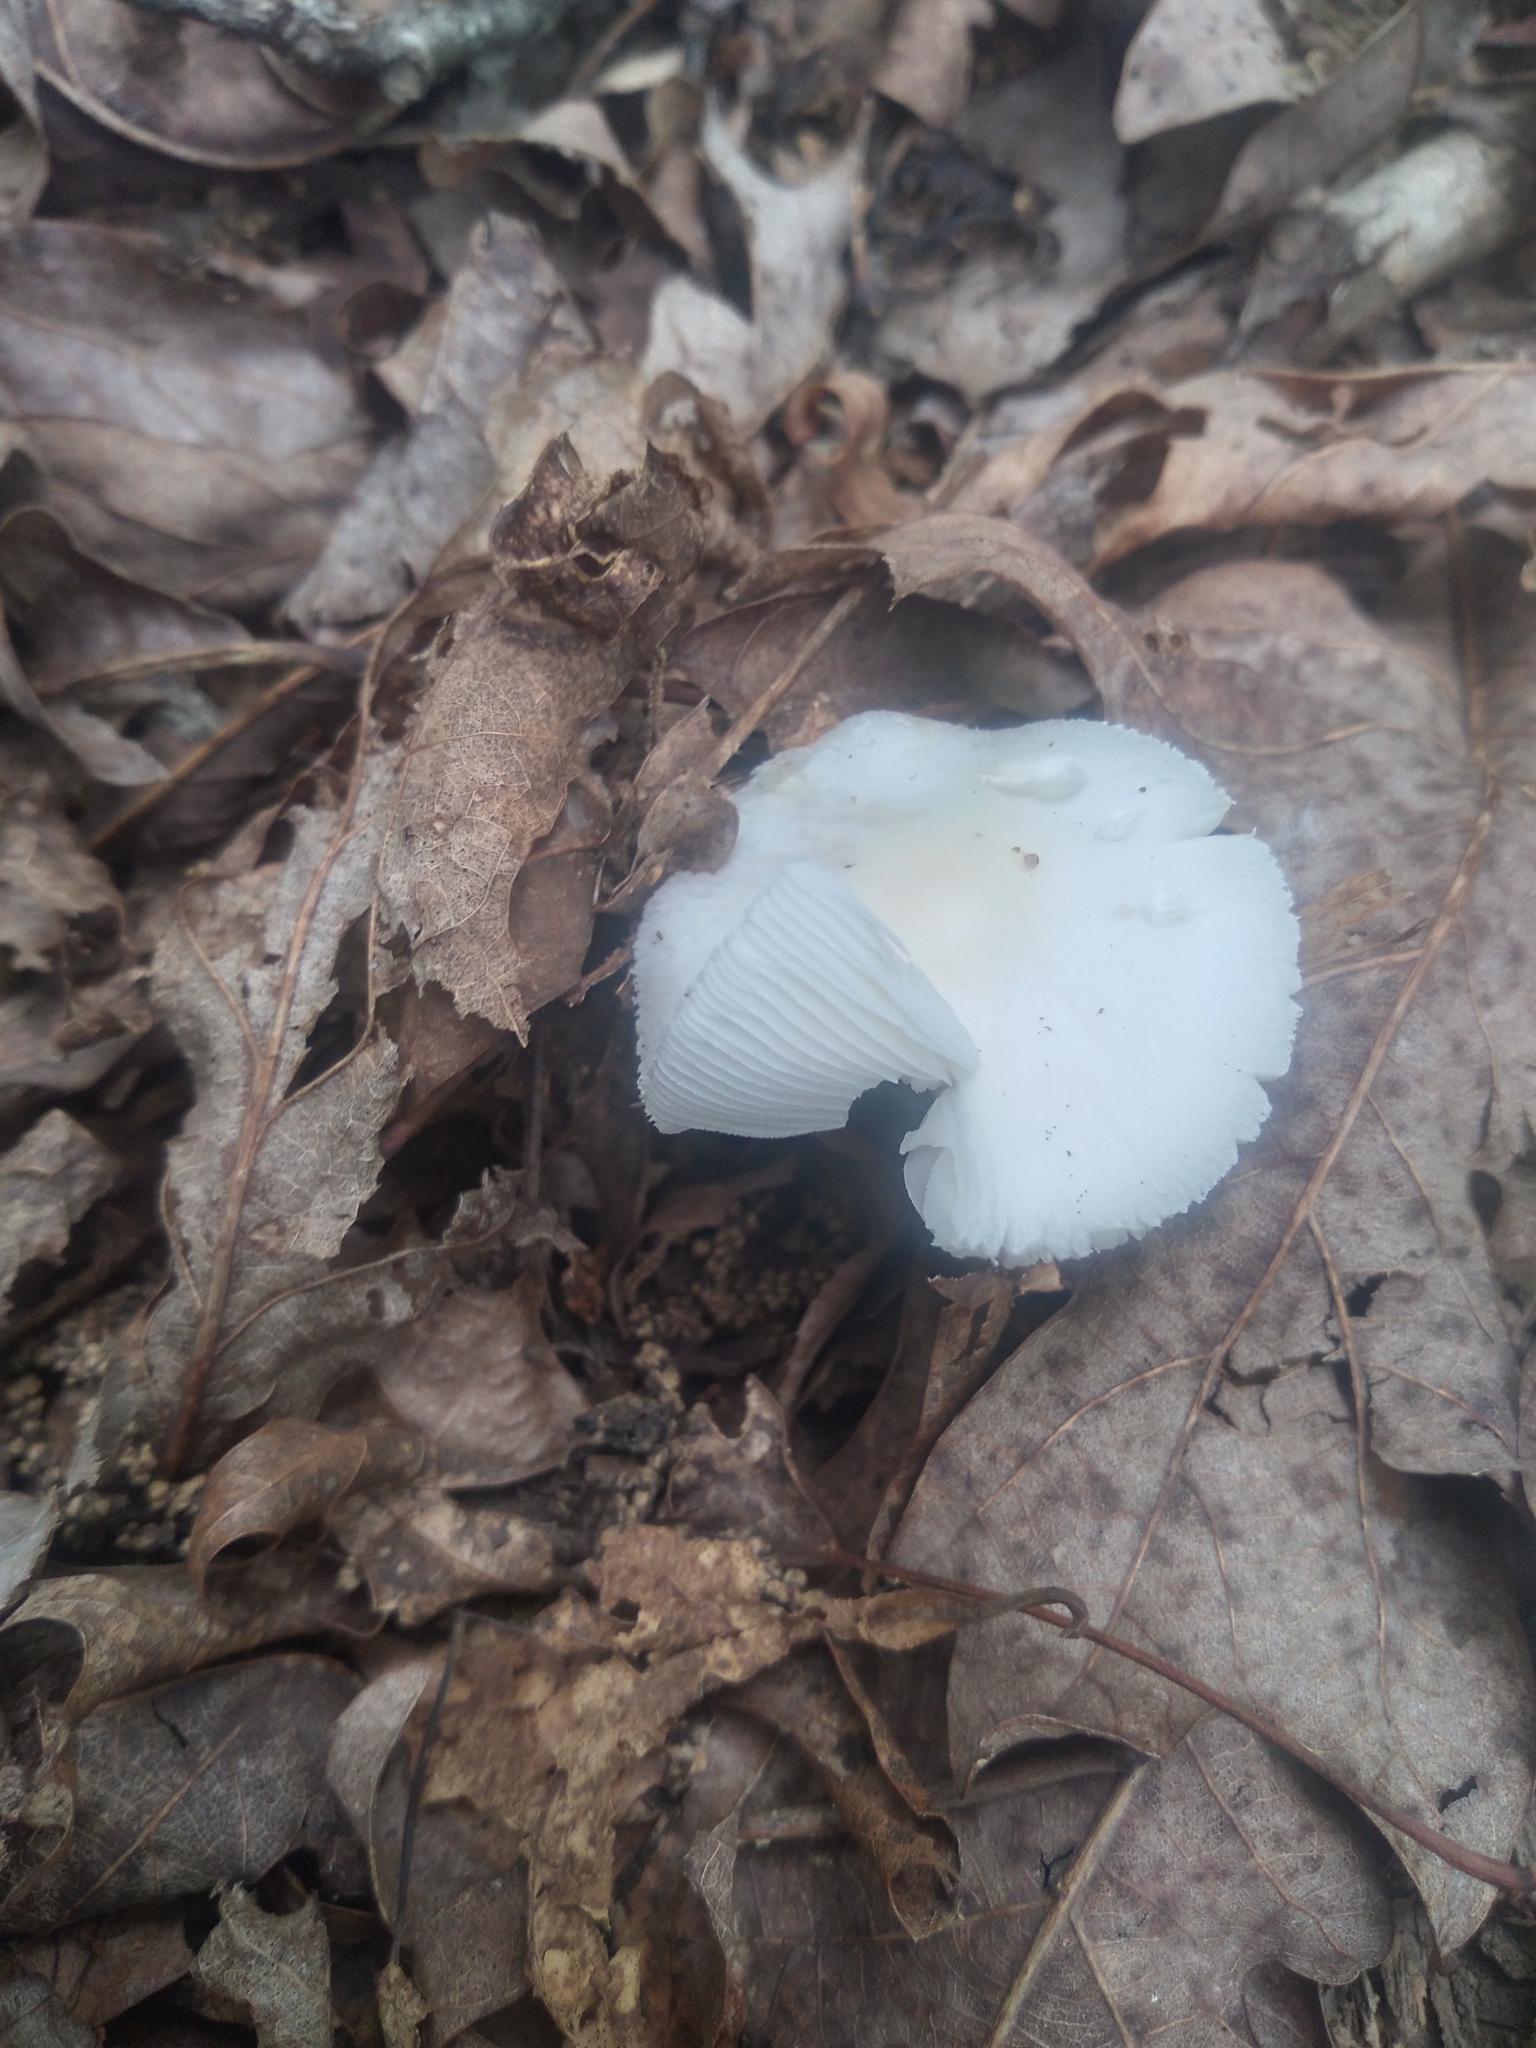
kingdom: Fungi
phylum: Basidiomycota
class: Agaricomycetes
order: Agaricales
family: Amanitaceae
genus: Amanita
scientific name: Amanita bisporigera
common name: Eastern north american destroying angel
